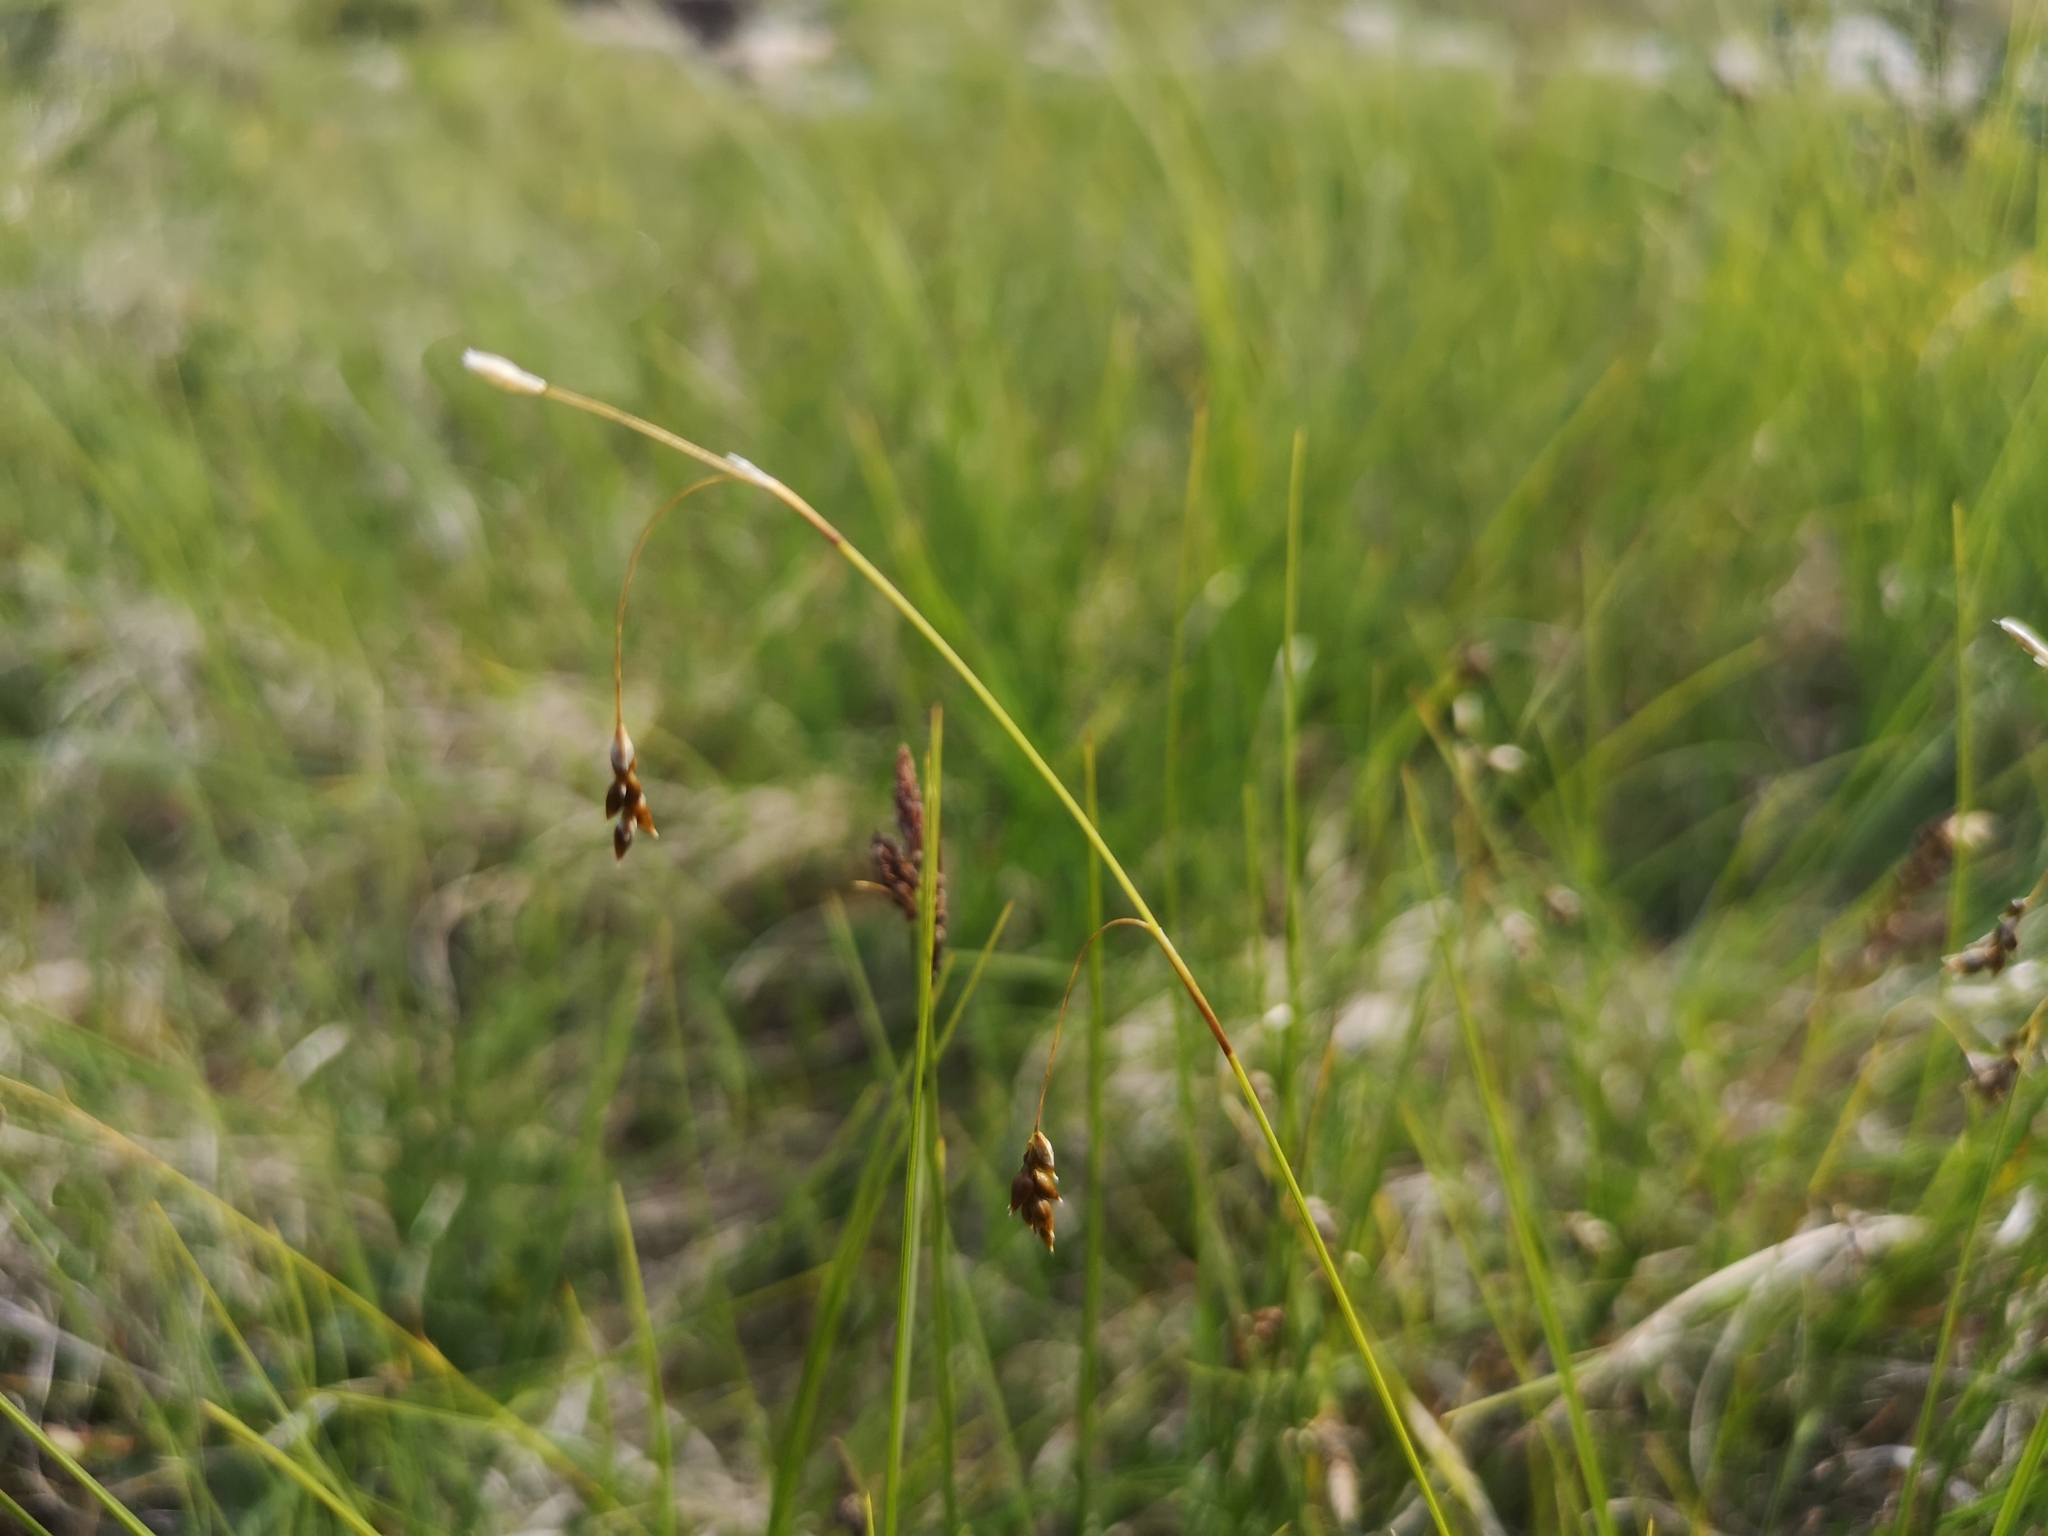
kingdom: Plantae
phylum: Tracheophyta
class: Liliopsida
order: Poales
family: Cyperaceae
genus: Carex
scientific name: Carex limosa
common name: Bog sedge
